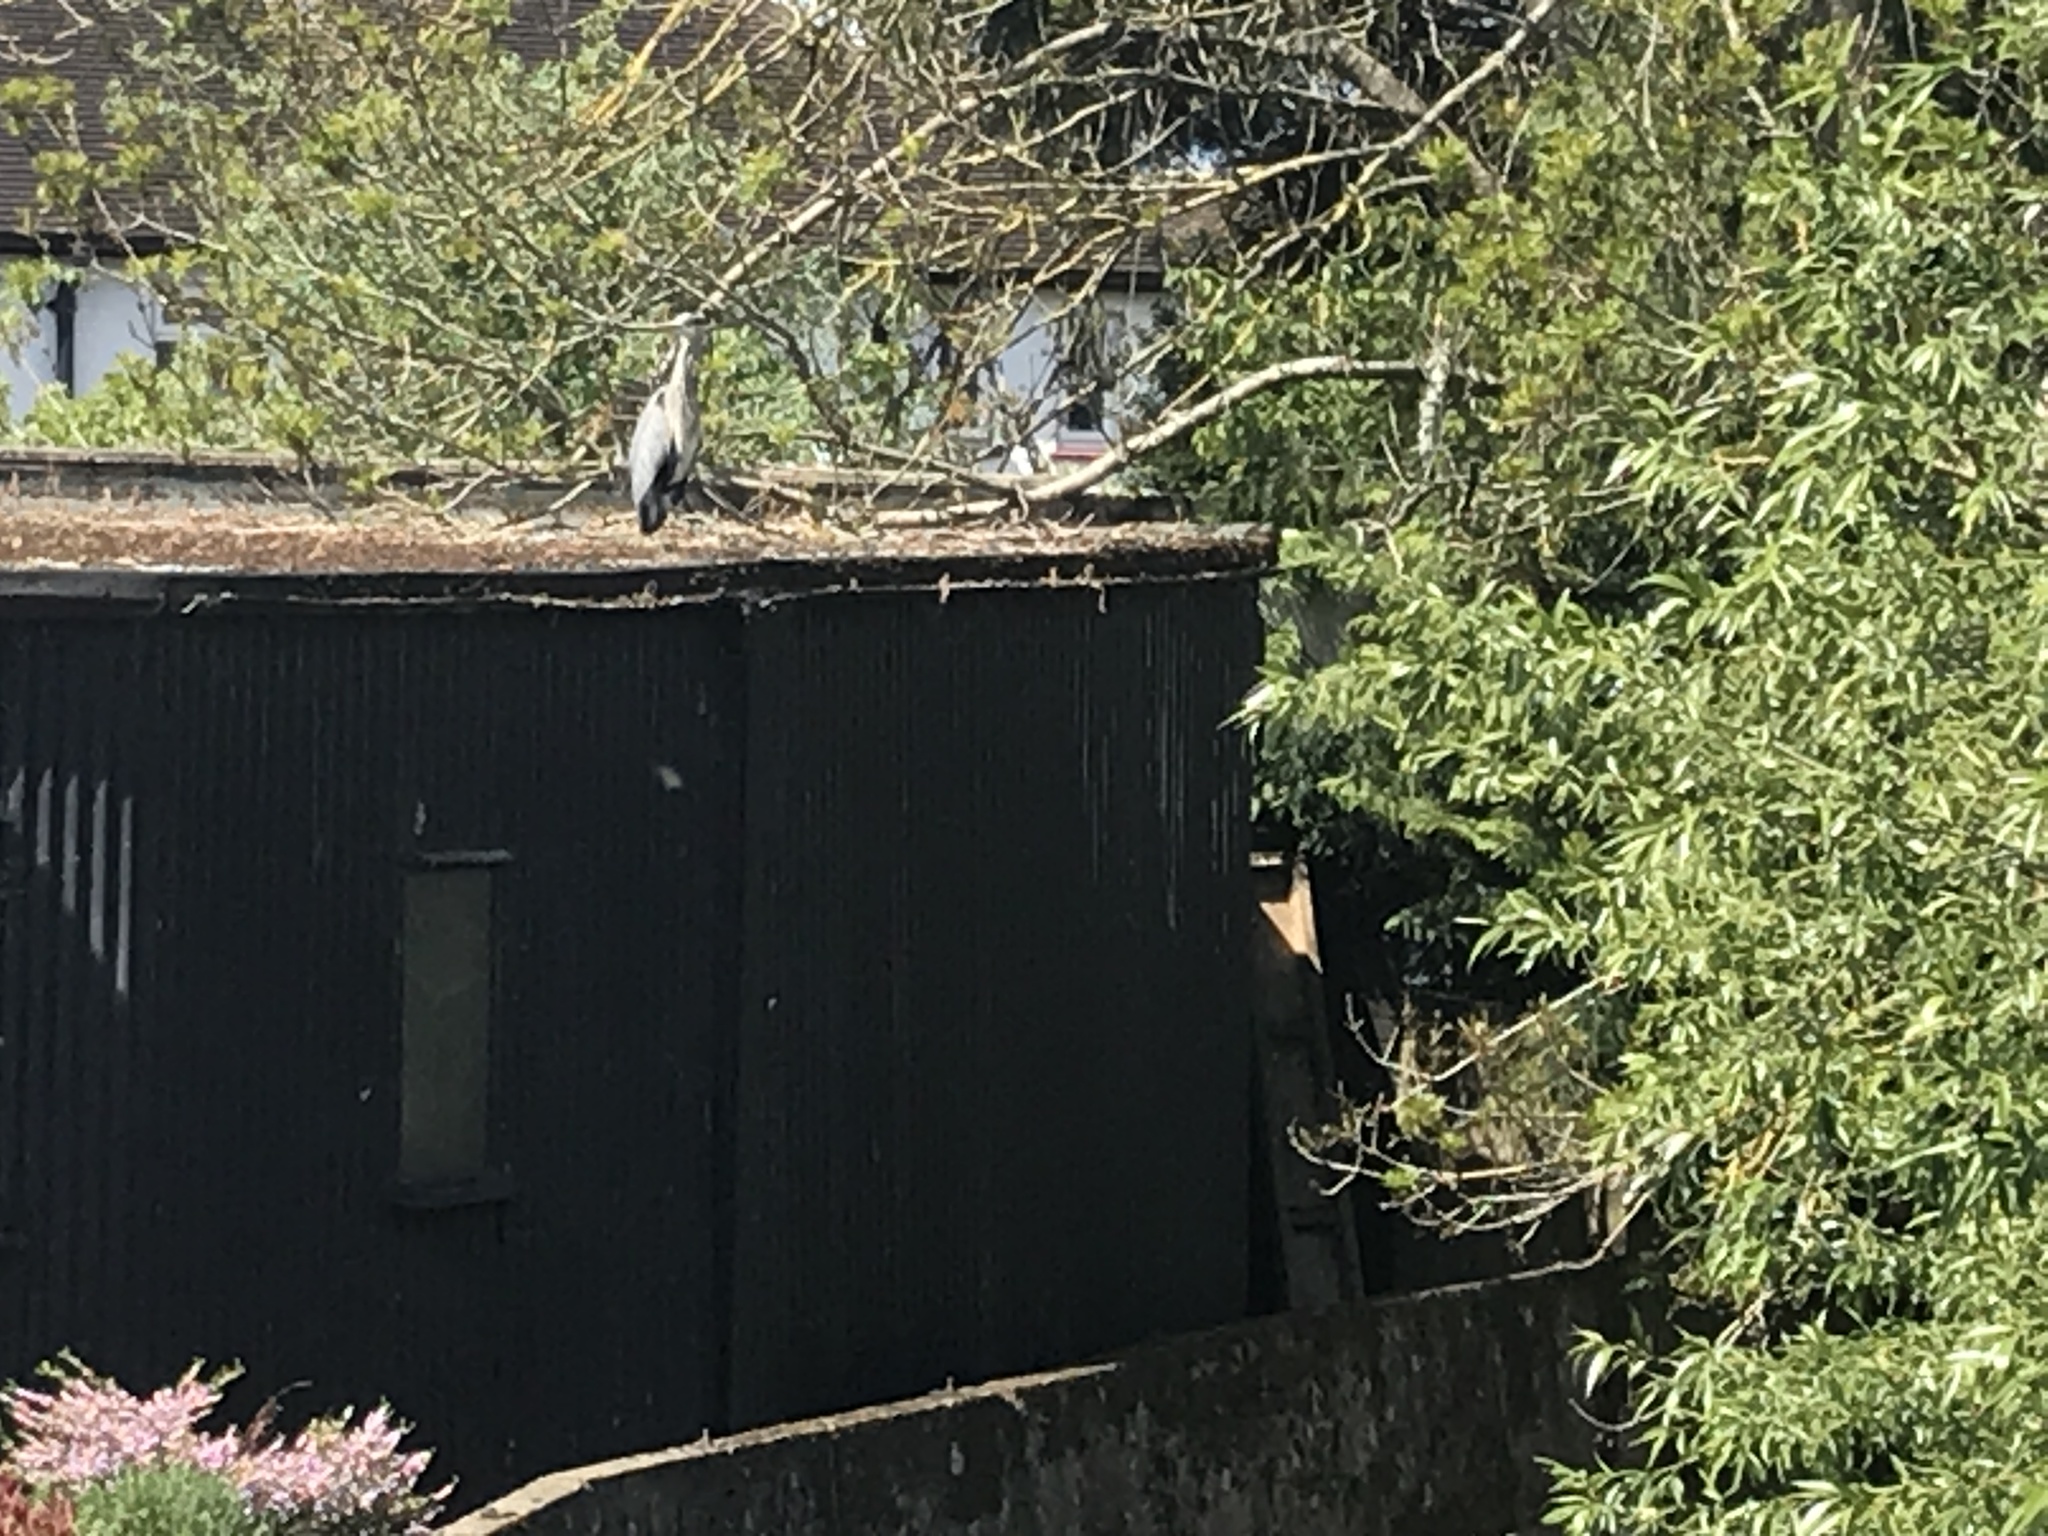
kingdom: Animalia
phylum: Chordata
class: Aves
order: Pelecaniformes
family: Ardeidae
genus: Ardea
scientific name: Ardea cinerea
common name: Grey heron
